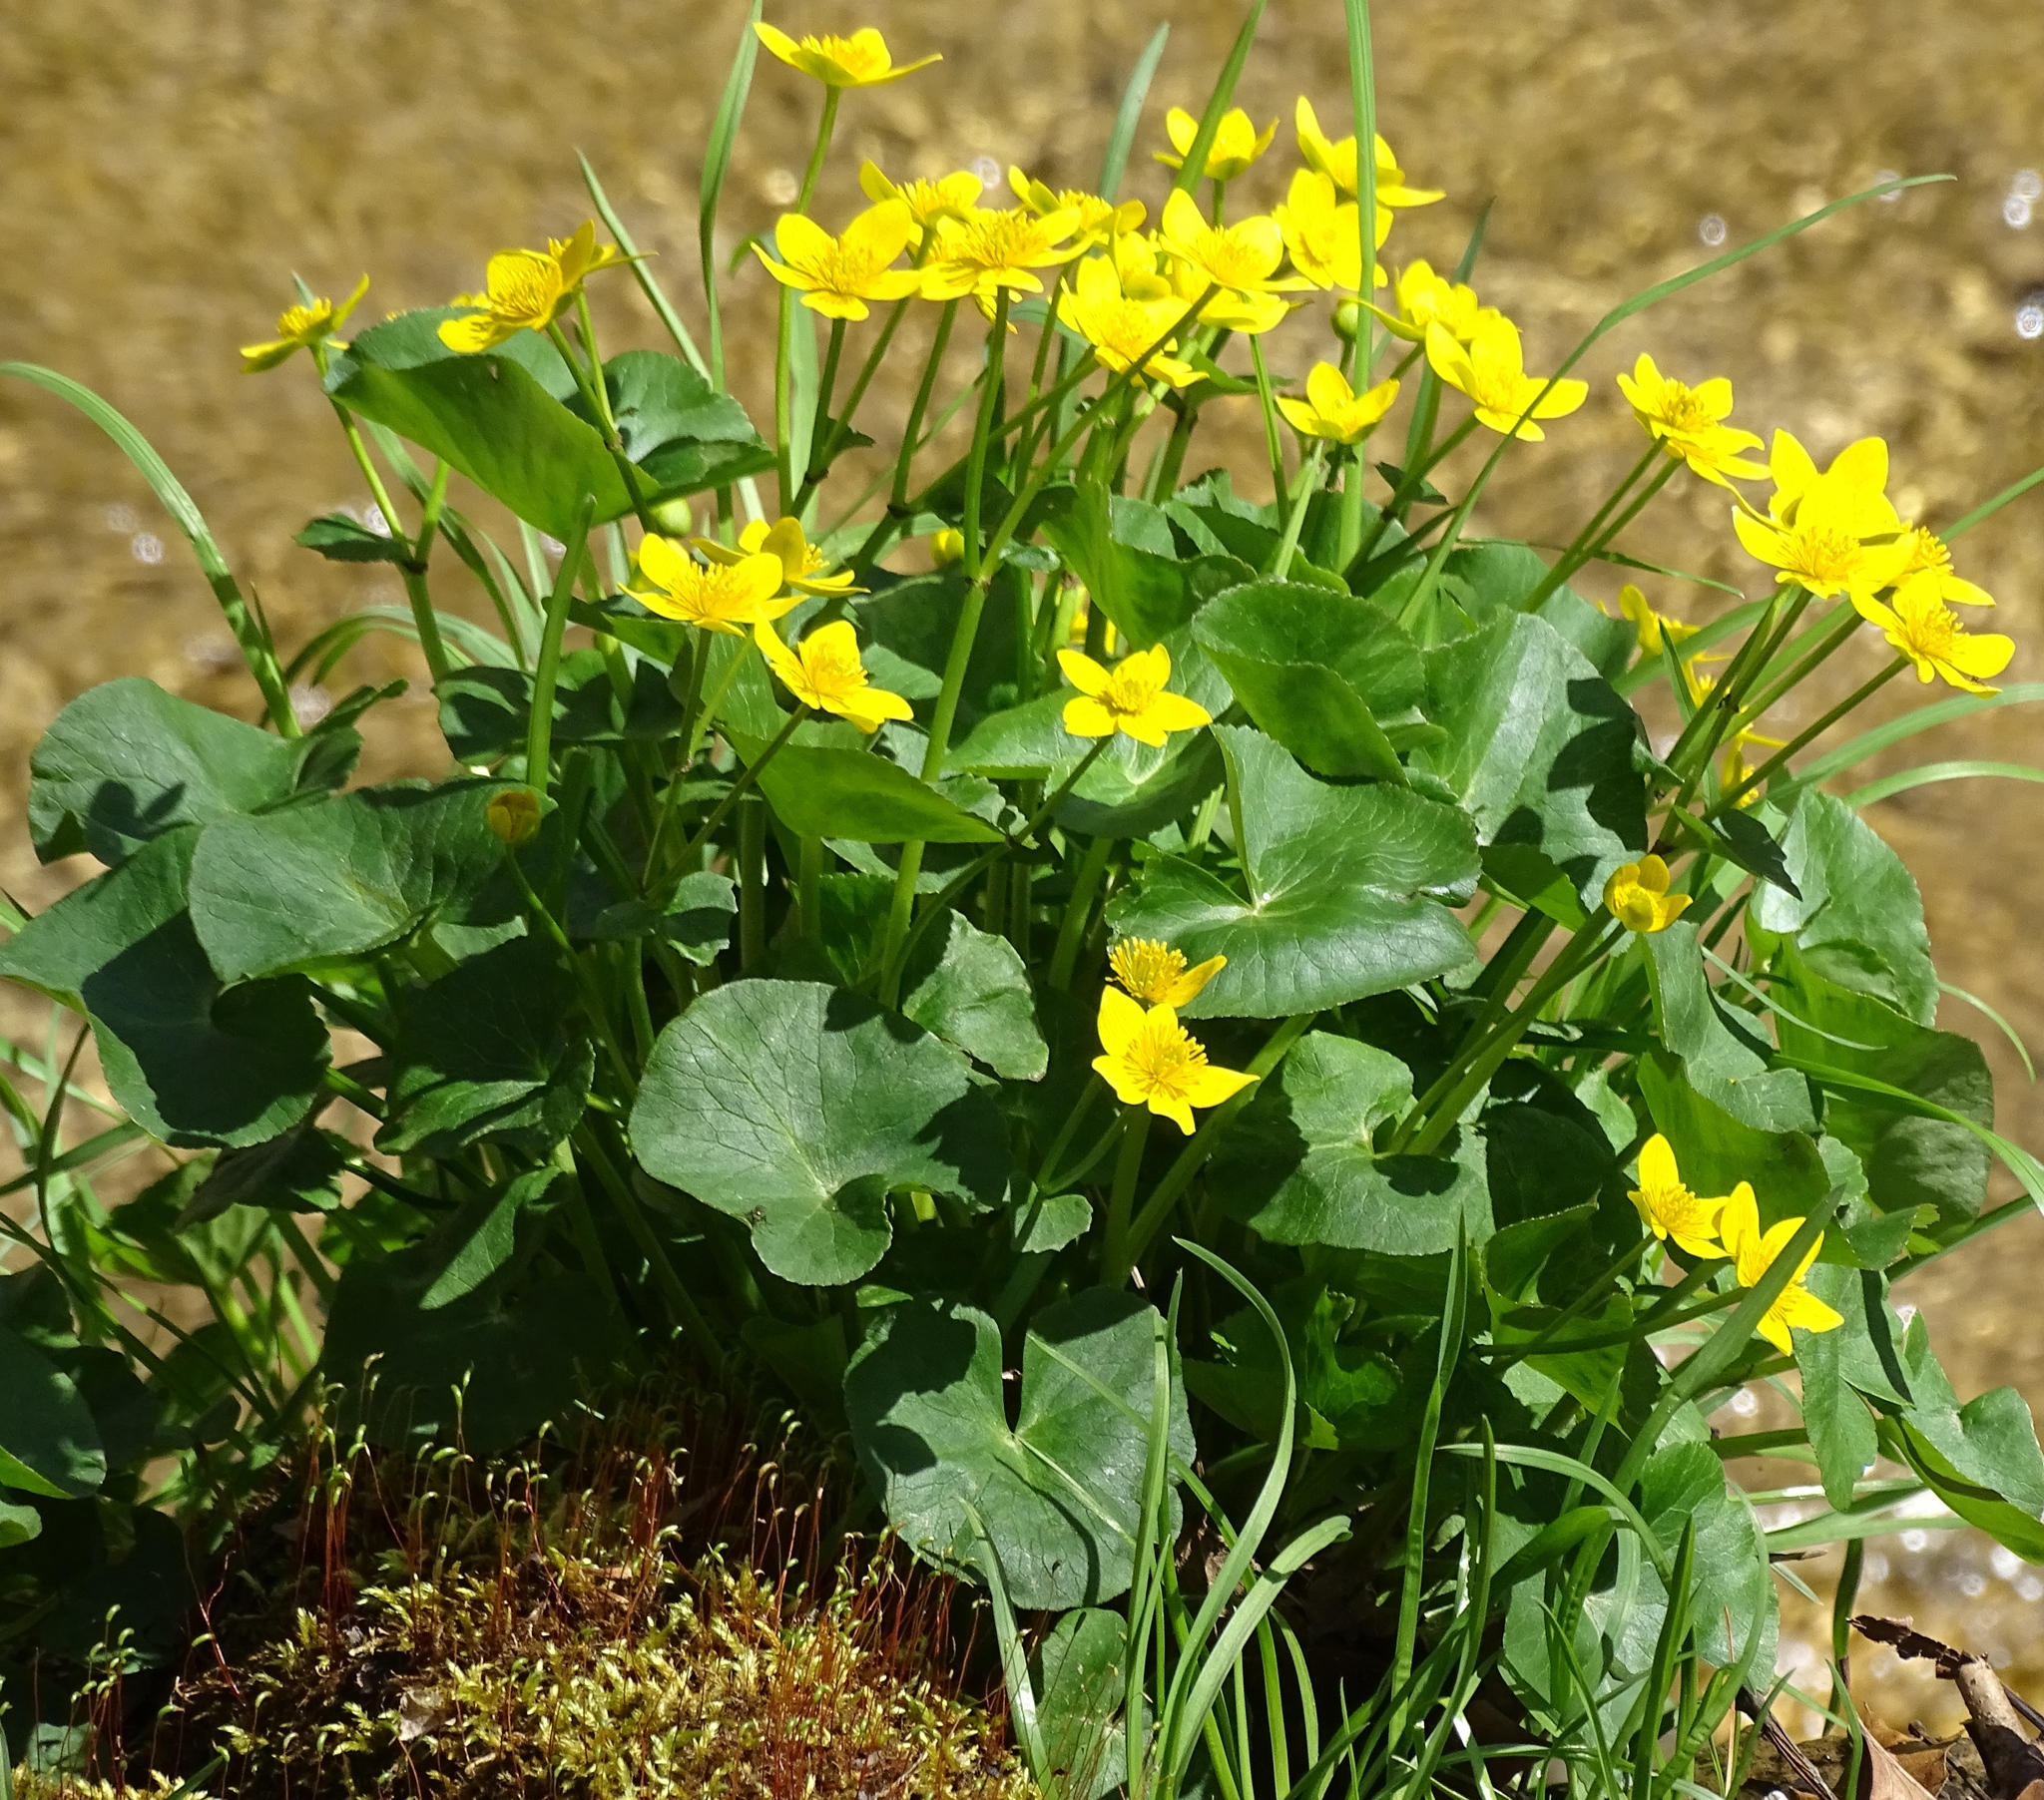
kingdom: Plantae
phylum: Tracheophyta
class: Magnoliopsida
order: Ranunculales
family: Ranunculaceae
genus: Caltha
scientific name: Caltha palustris
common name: Marsh marigold
